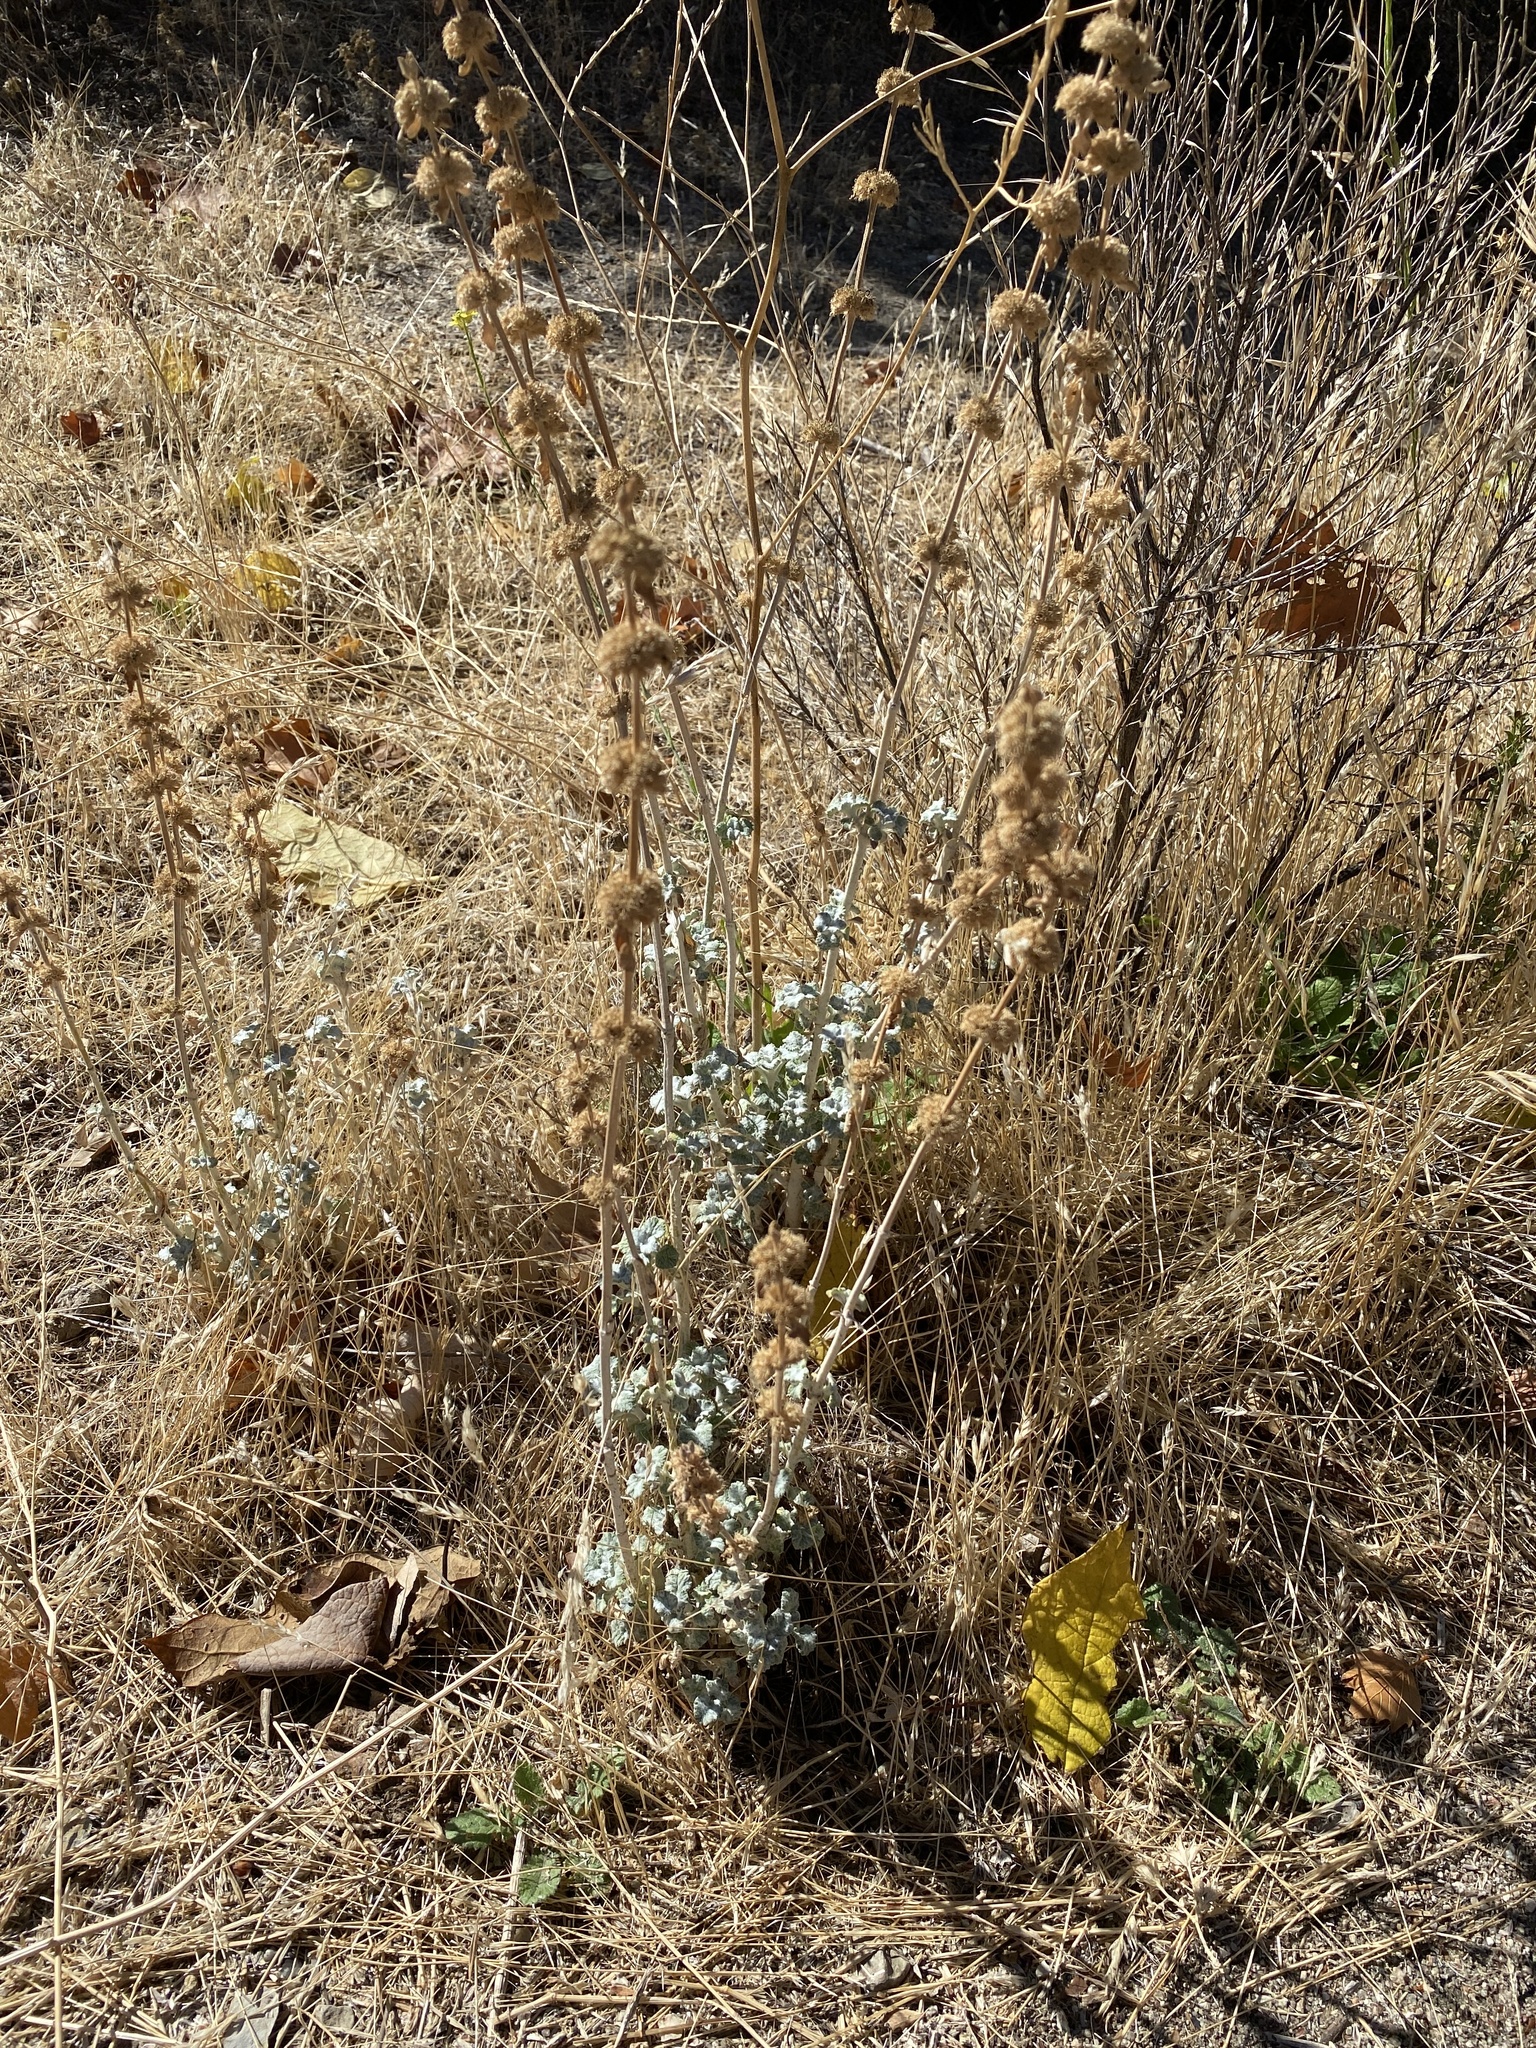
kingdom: Plantae
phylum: Tracheophyta
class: Magnoliopsida
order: Lamiales
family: Lamiaceae
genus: Marrubium
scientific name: Marrubium vulgare
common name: Horehound
